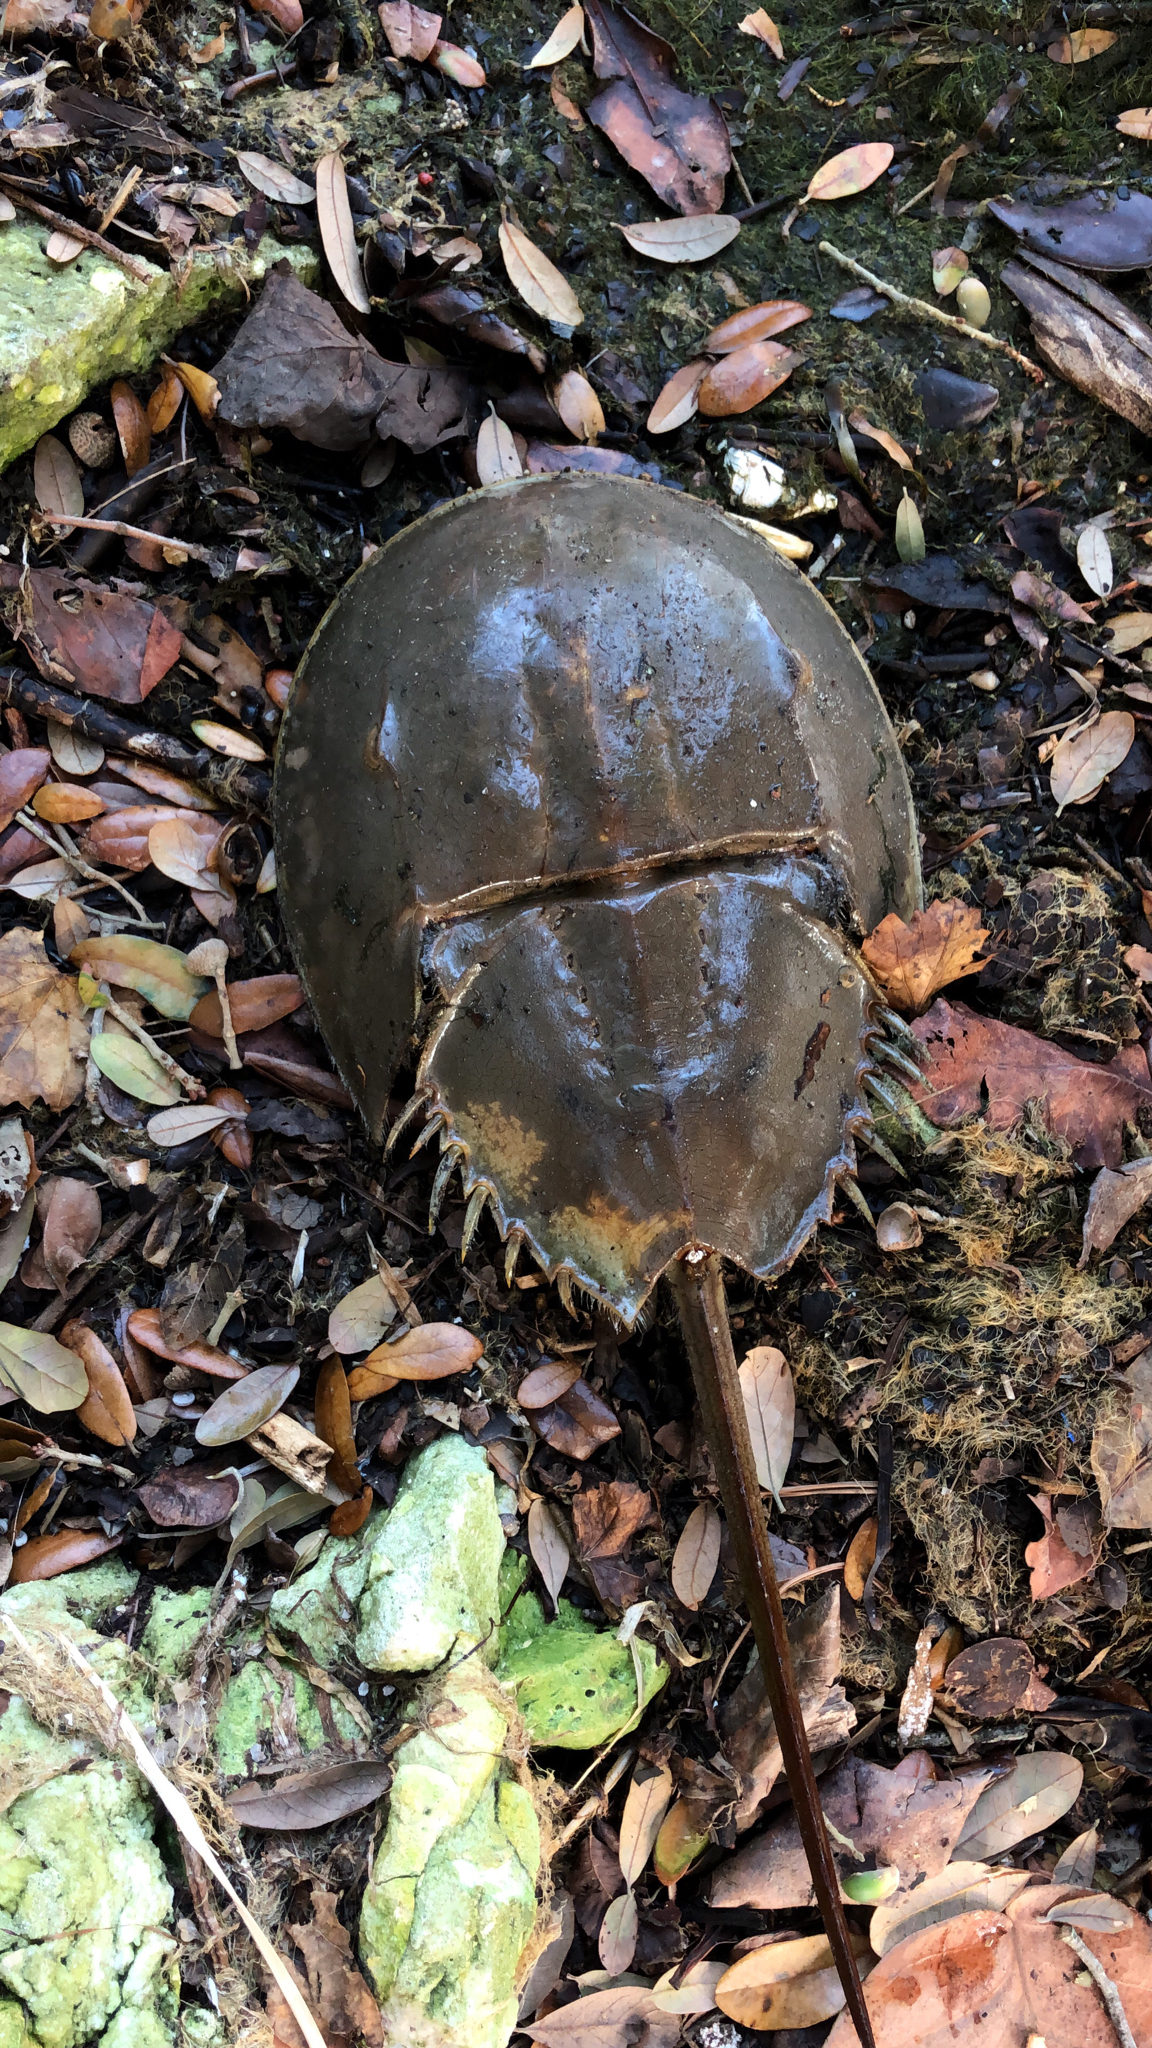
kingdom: Animalia
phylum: Arthropoda
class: Merostomata
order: Xiphosurida
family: Limulidae
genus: Limulus
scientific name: Limulus polyphemus
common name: Horseshoe crab
